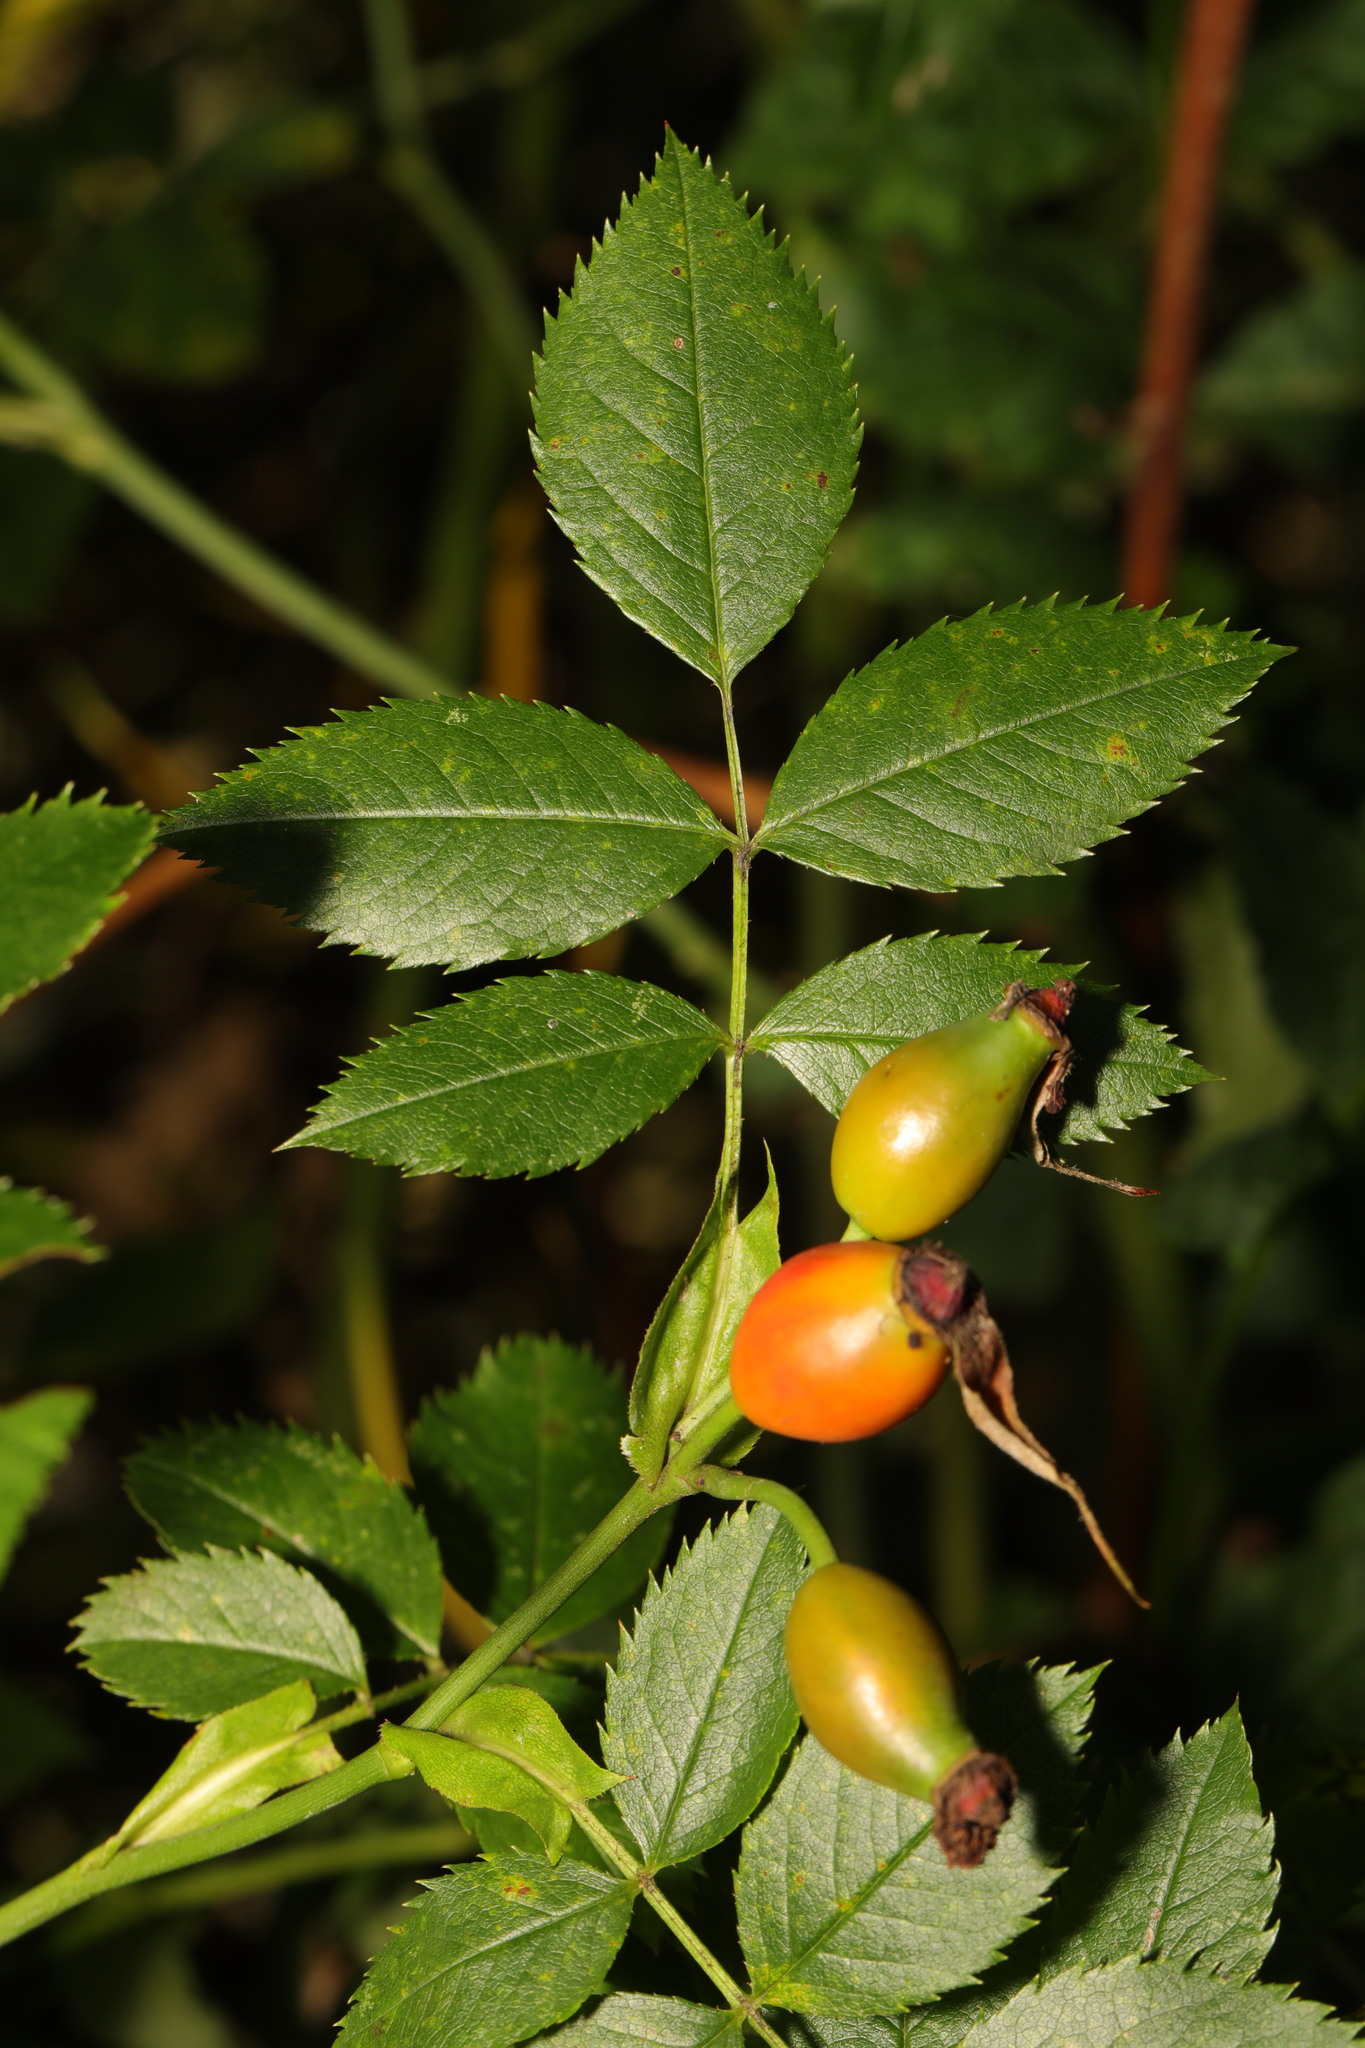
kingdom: Plantae
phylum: Tracheophyta
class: Magnoliopsida
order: Rosales
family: Rosaceae
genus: Rosa
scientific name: Rosa canina
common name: Dog rose
